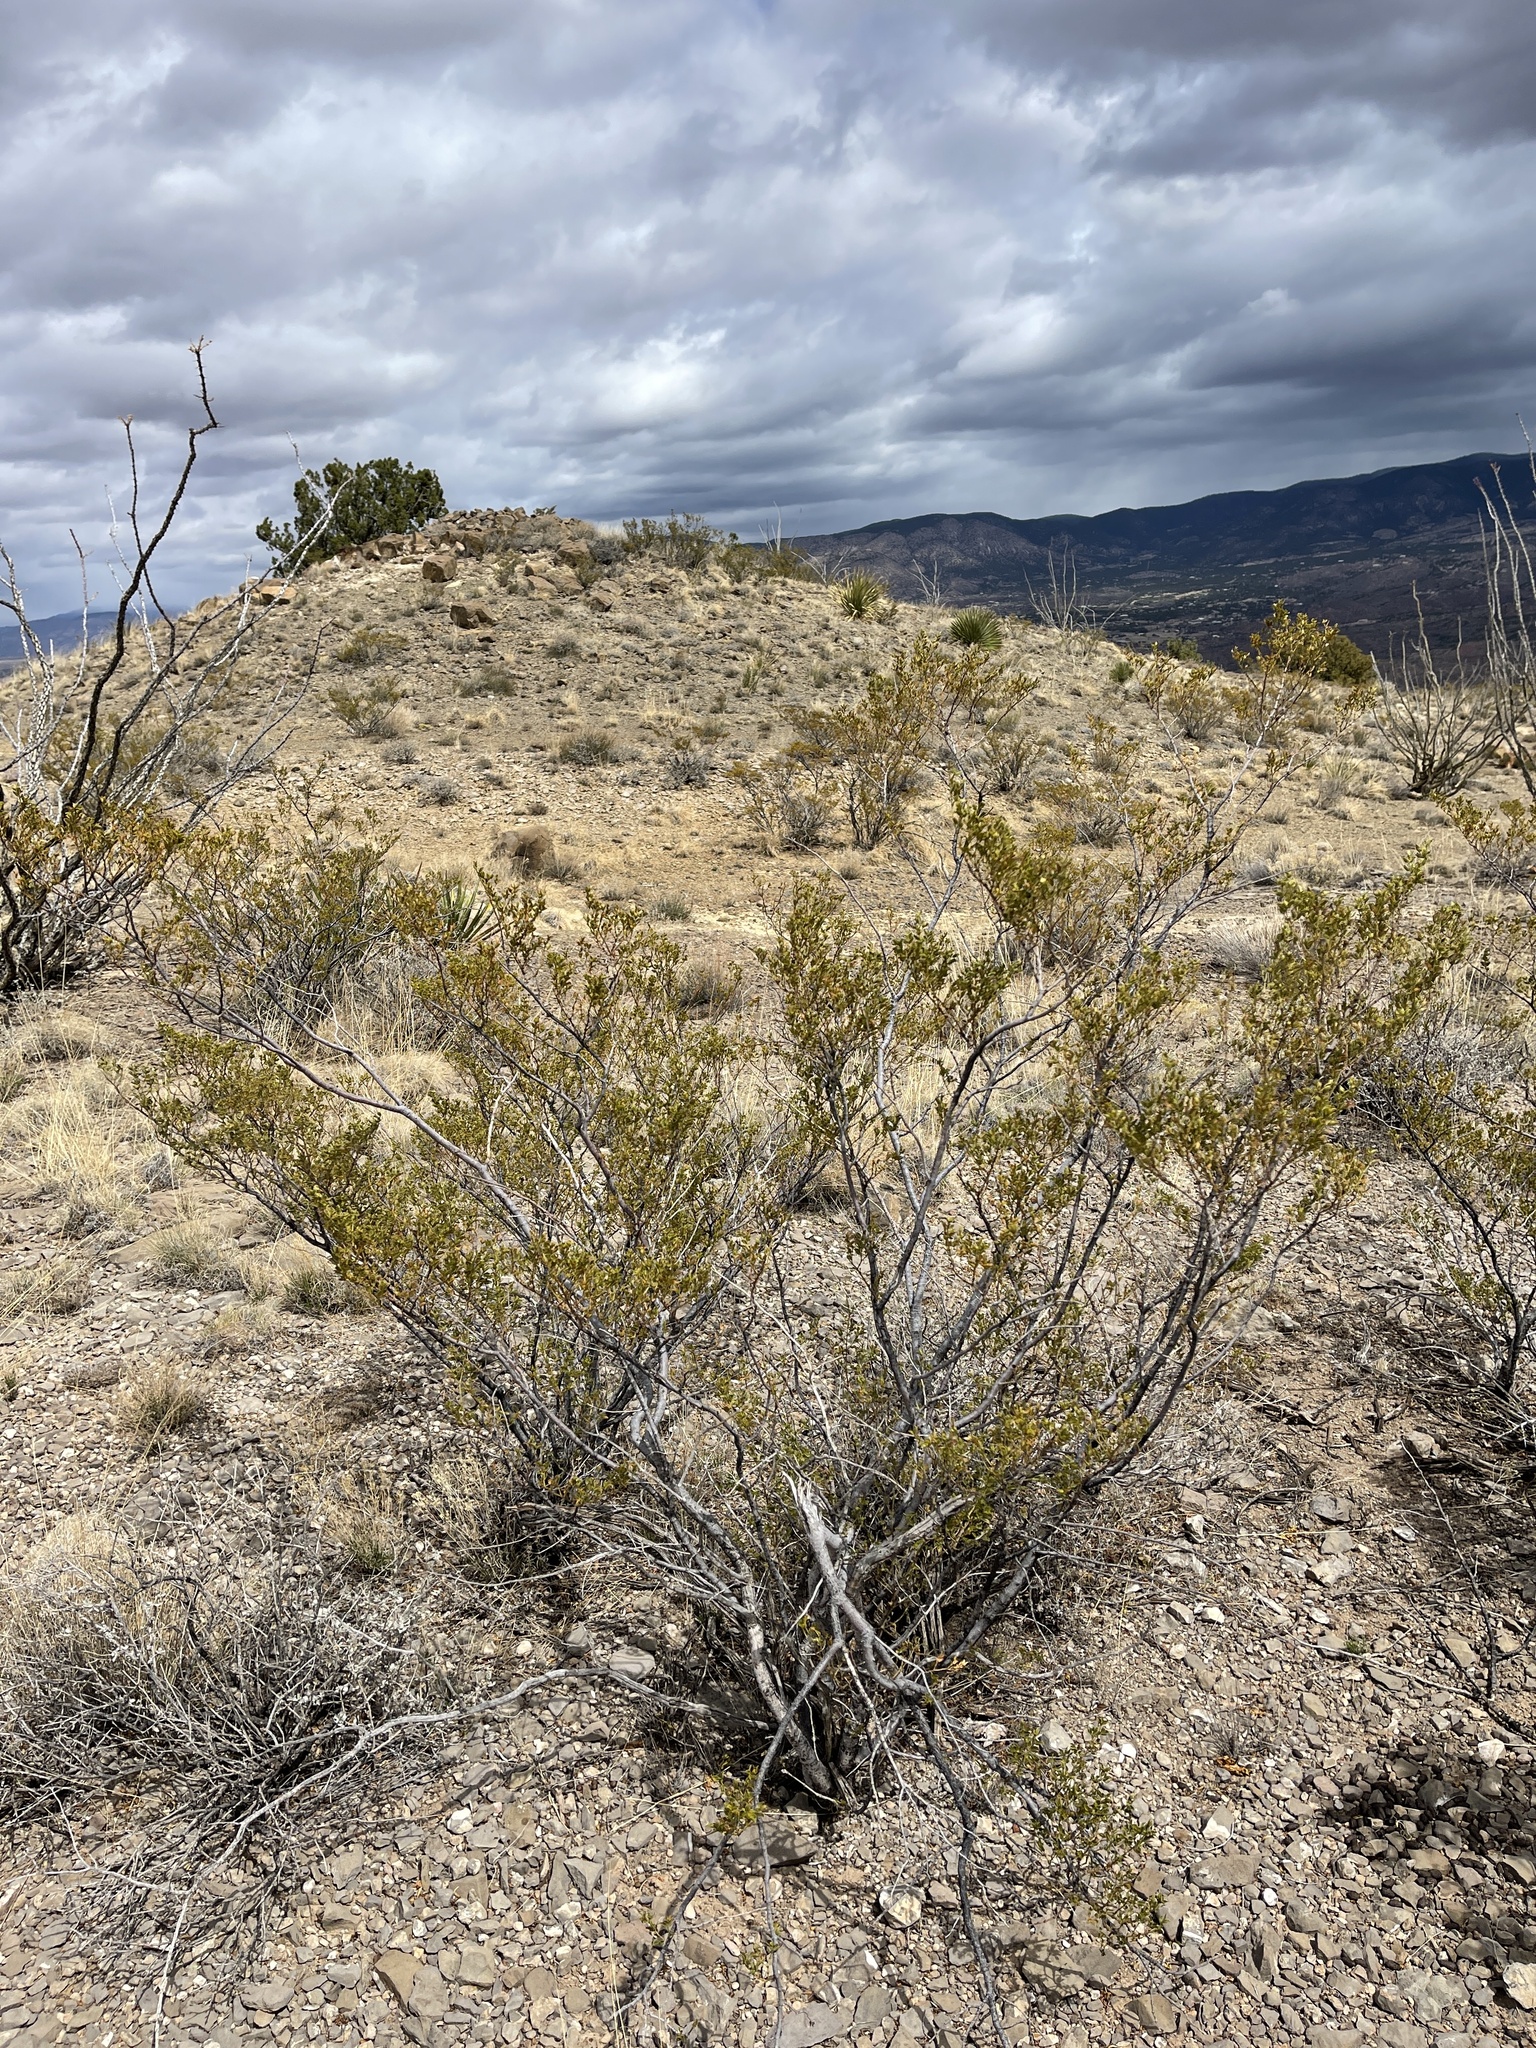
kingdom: Plantae
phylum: Tracheophyta
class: Magnoliopsida
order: Zygophyllales
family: Zygophyllaceae
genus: Larrea
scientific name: Larrea tridentata
